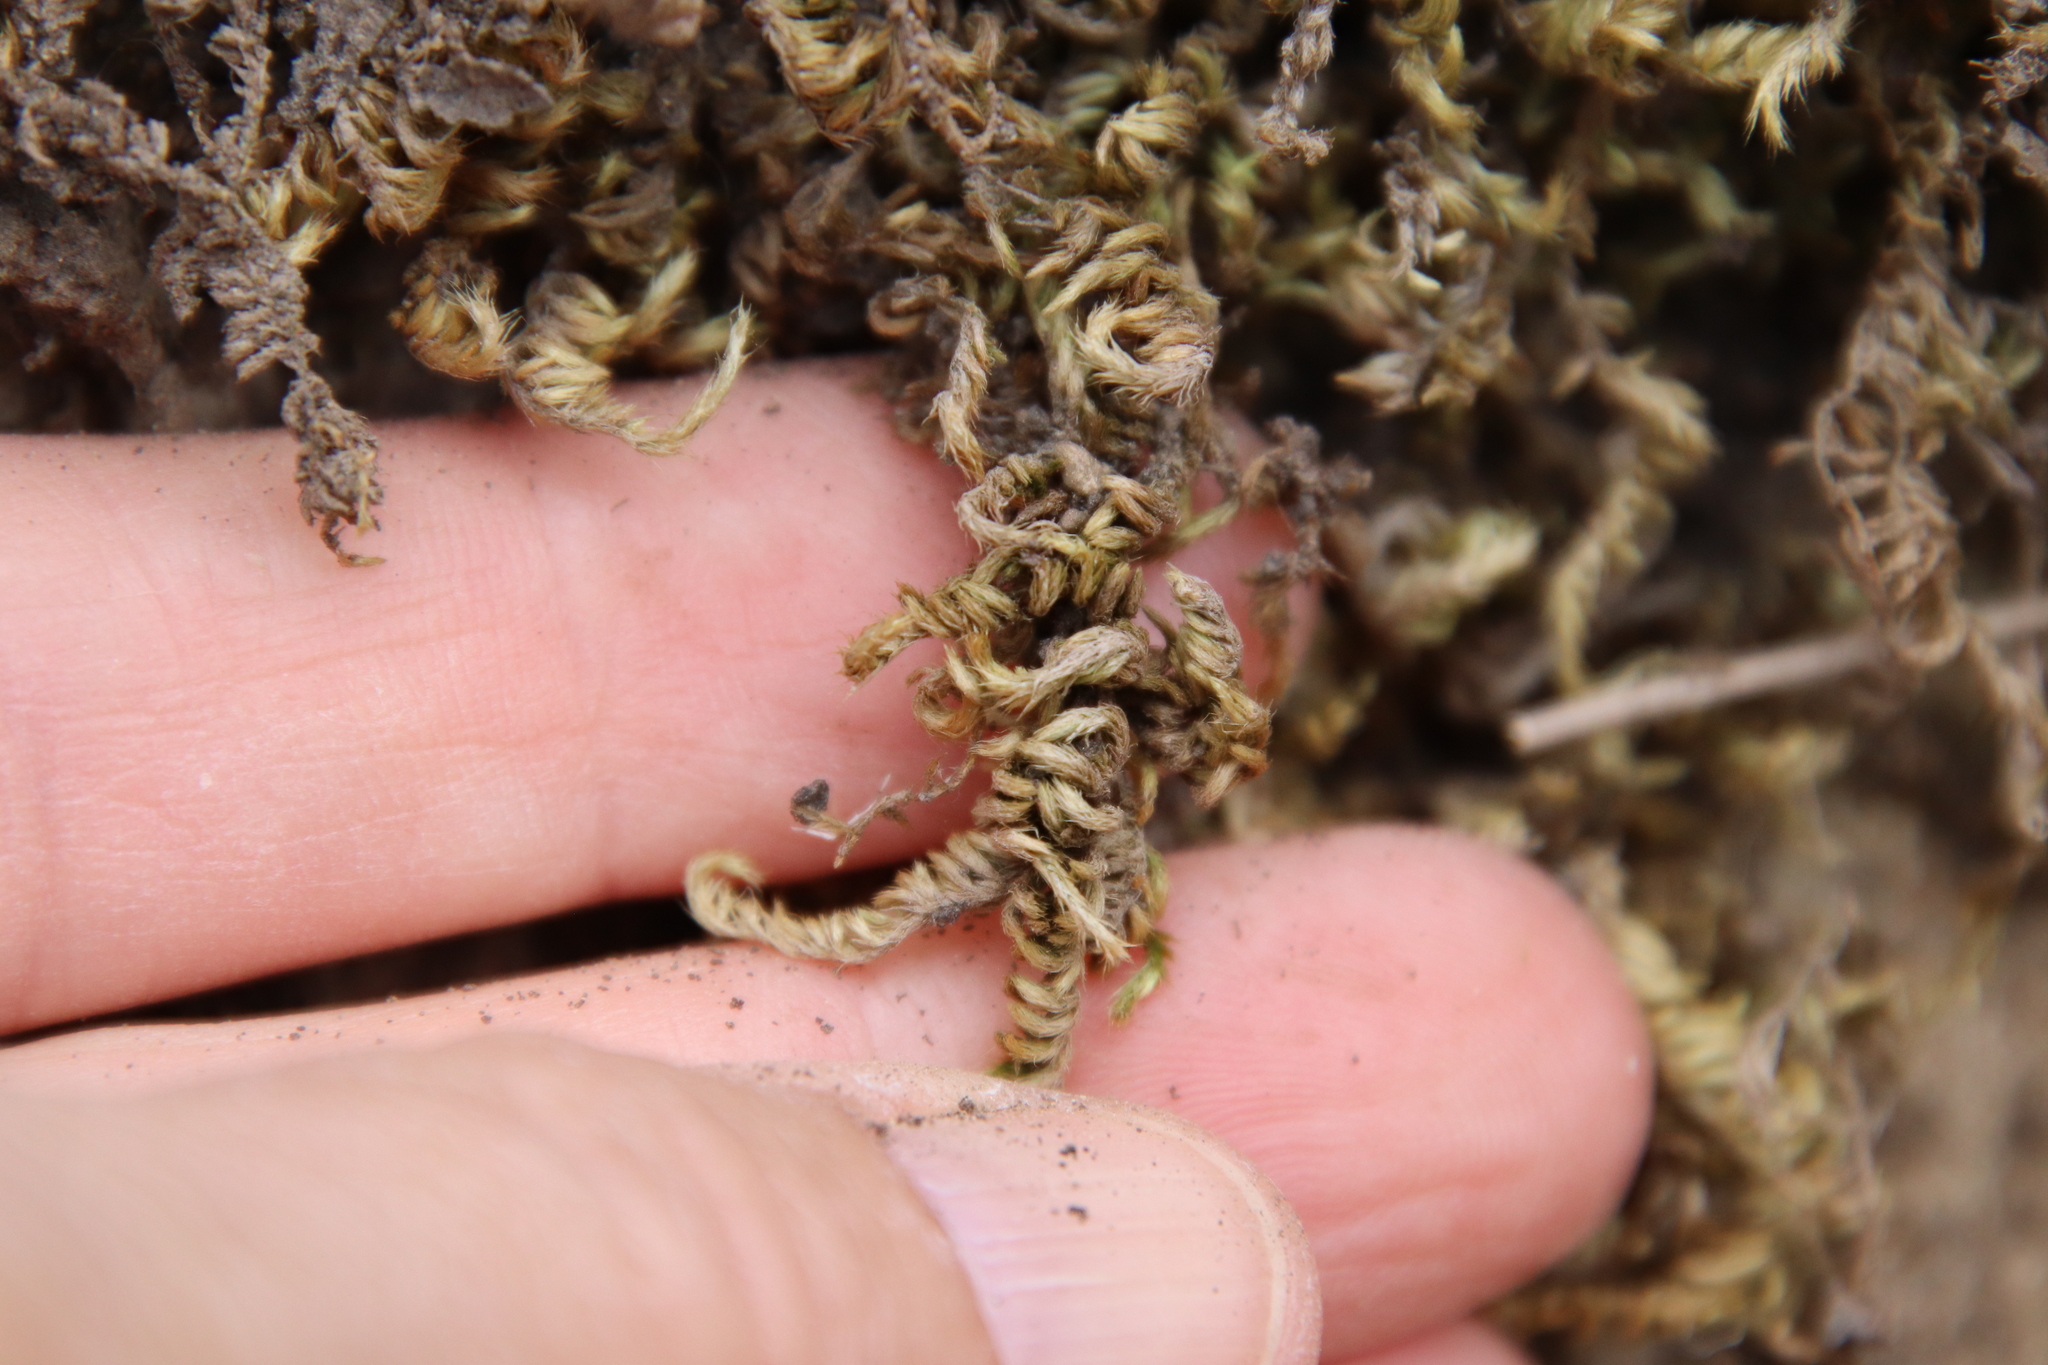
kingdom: Plantae
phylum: Bryophyta
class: Bryopsida
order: Hypnales
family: Brachytheciaceae
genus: Homalothecium
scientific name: Homalothecium aureum
